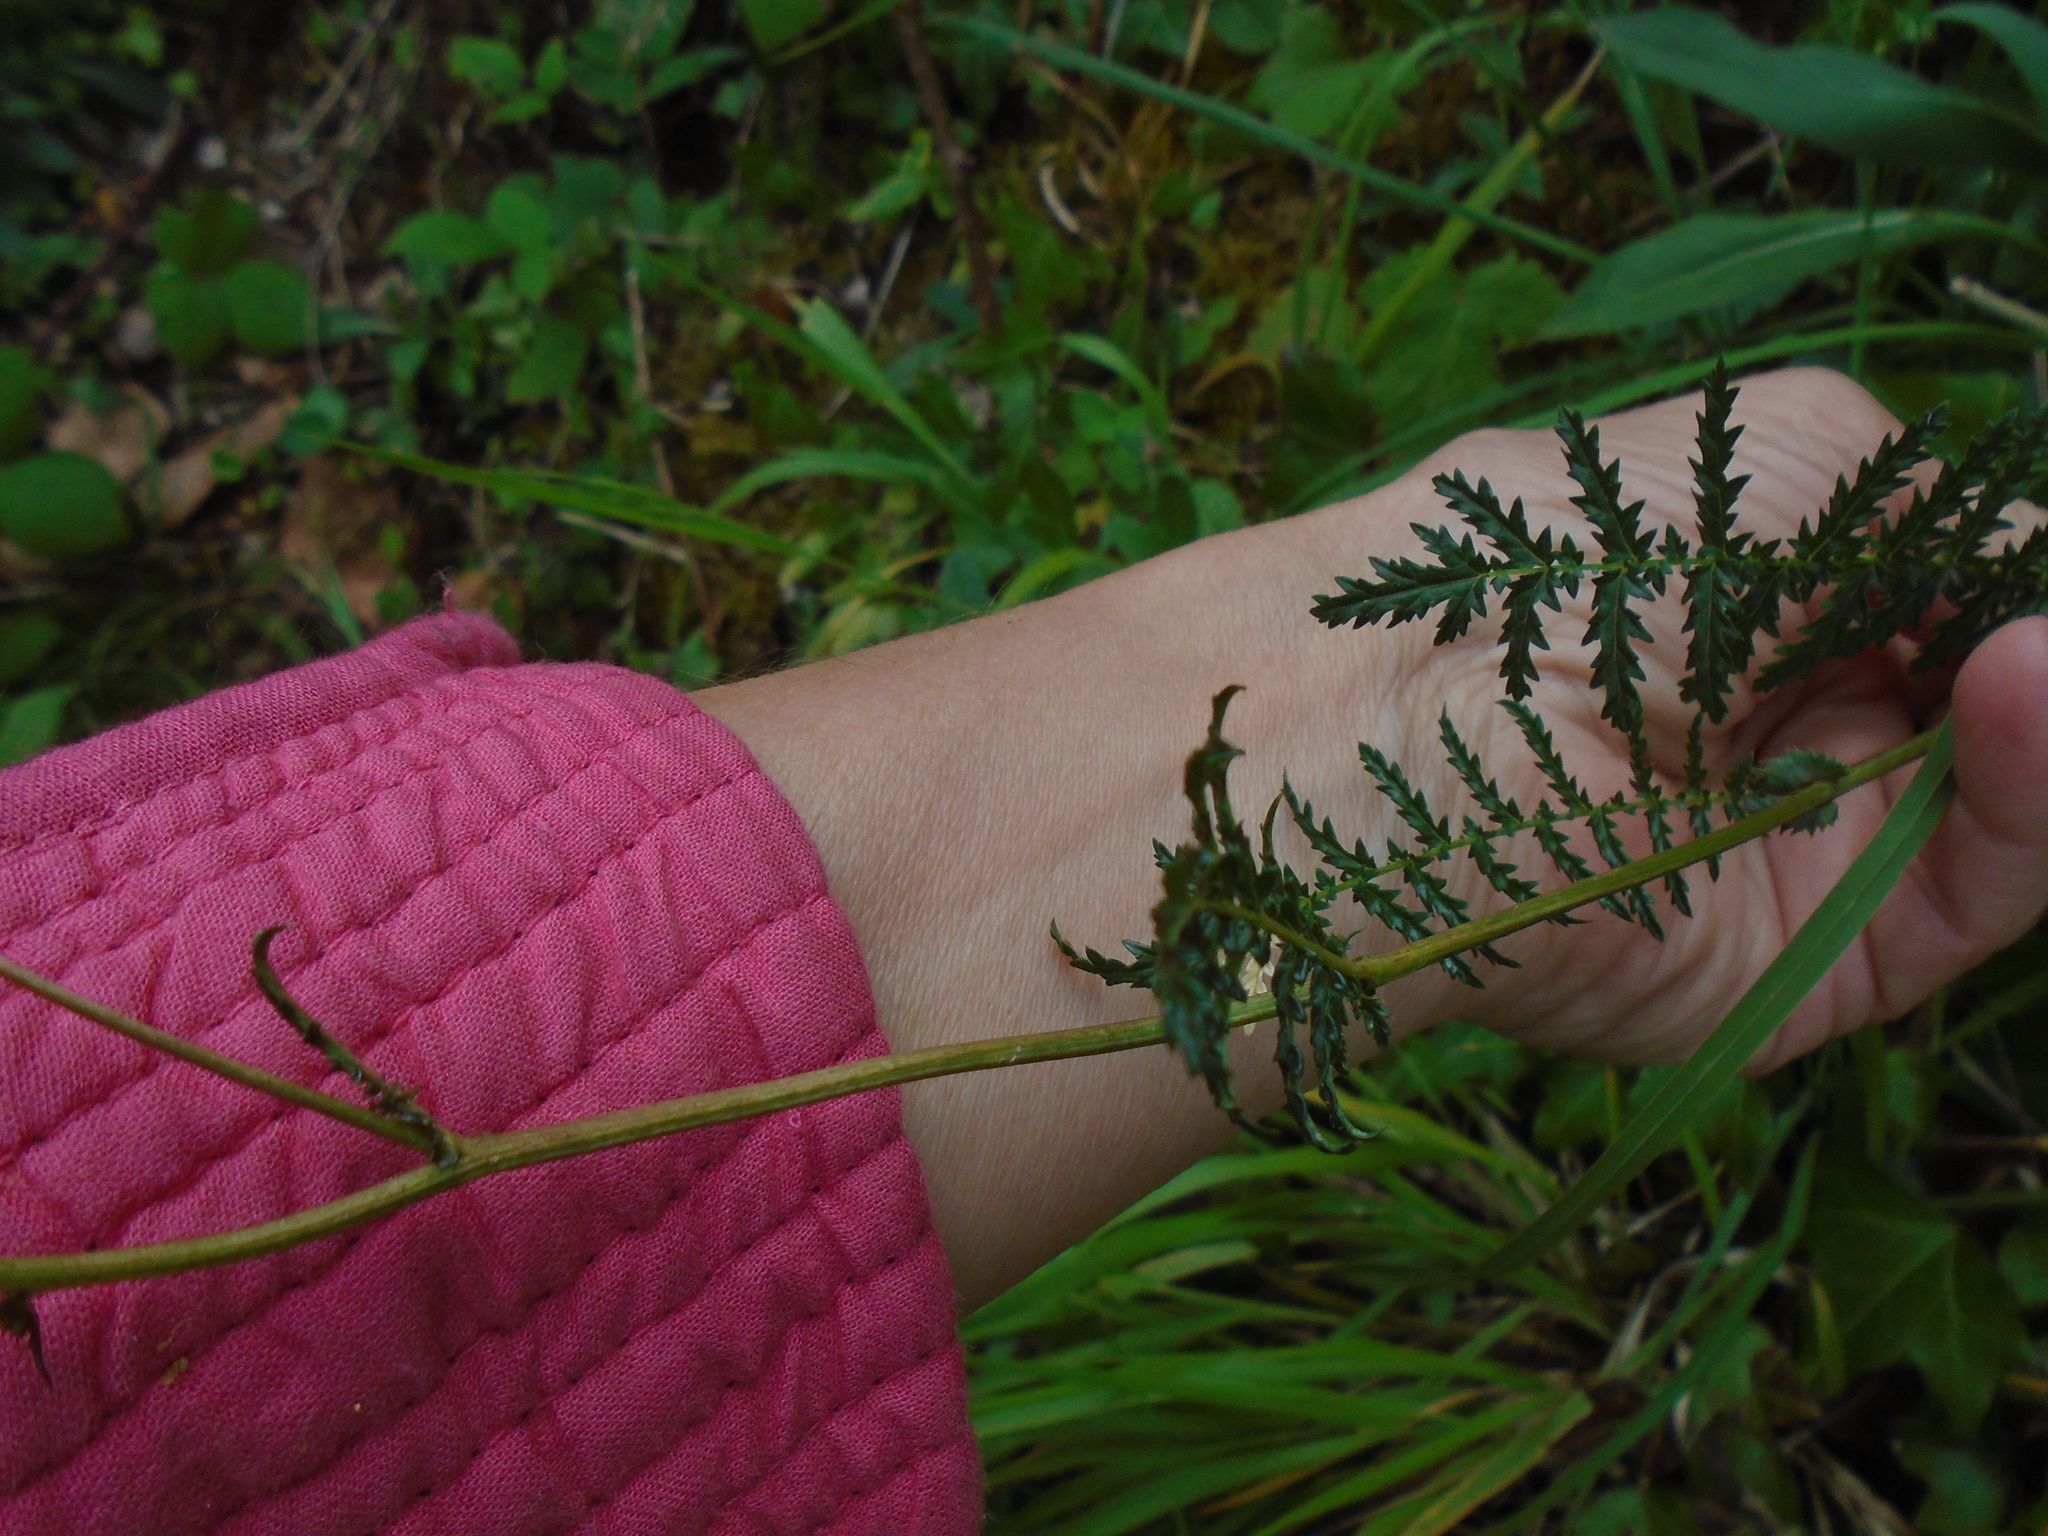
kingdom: Plantae
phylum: Tracheophyta
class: Magnoliopsida
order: Rosales
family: Rosaceae
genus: Filipendula
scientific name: Filipendula vulgaris
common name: Dropwort
